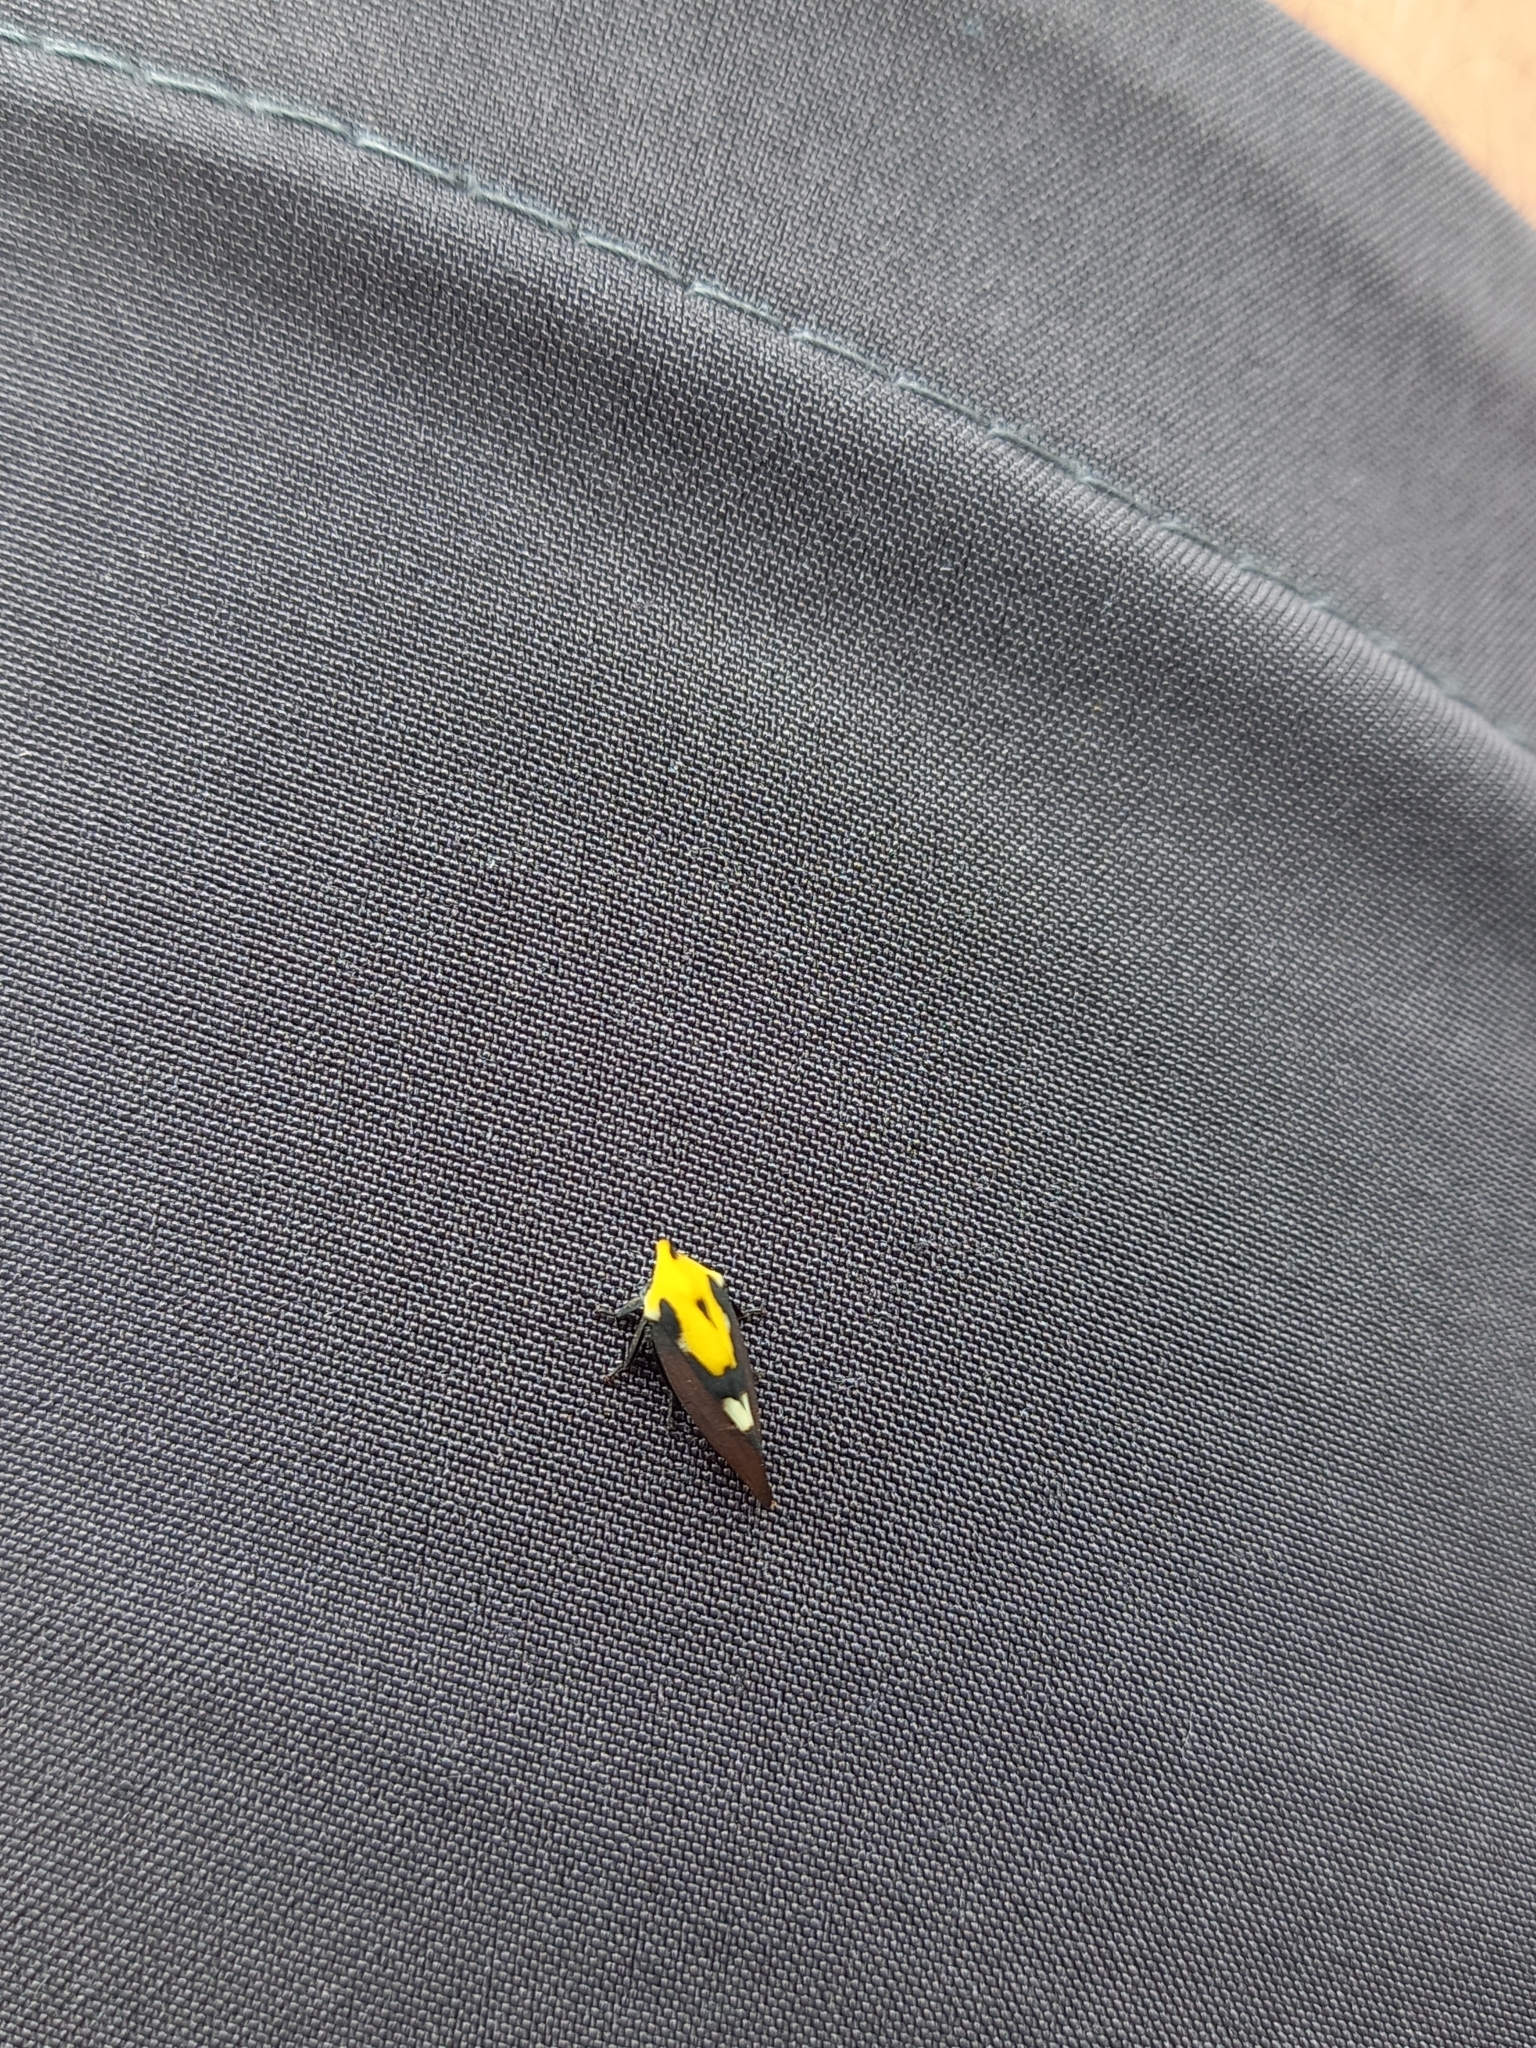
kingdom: Animalia
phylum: Arthropoda
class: Insecta
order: Hemiptera
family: Membracidae
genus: Membracis
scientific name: Membracis mexicana
